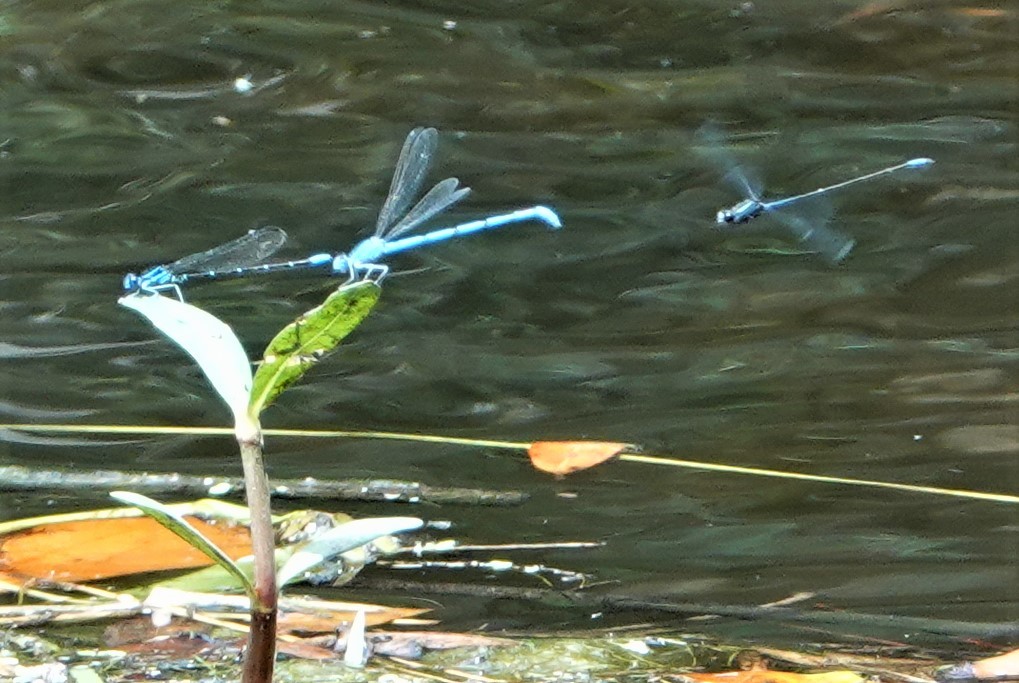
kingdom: Animalia
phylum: Arthropoda
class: Insecta
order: Odonata
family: Coenagrionidae
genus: Enallagma
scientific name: Enallagma civile
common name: Damselfly
